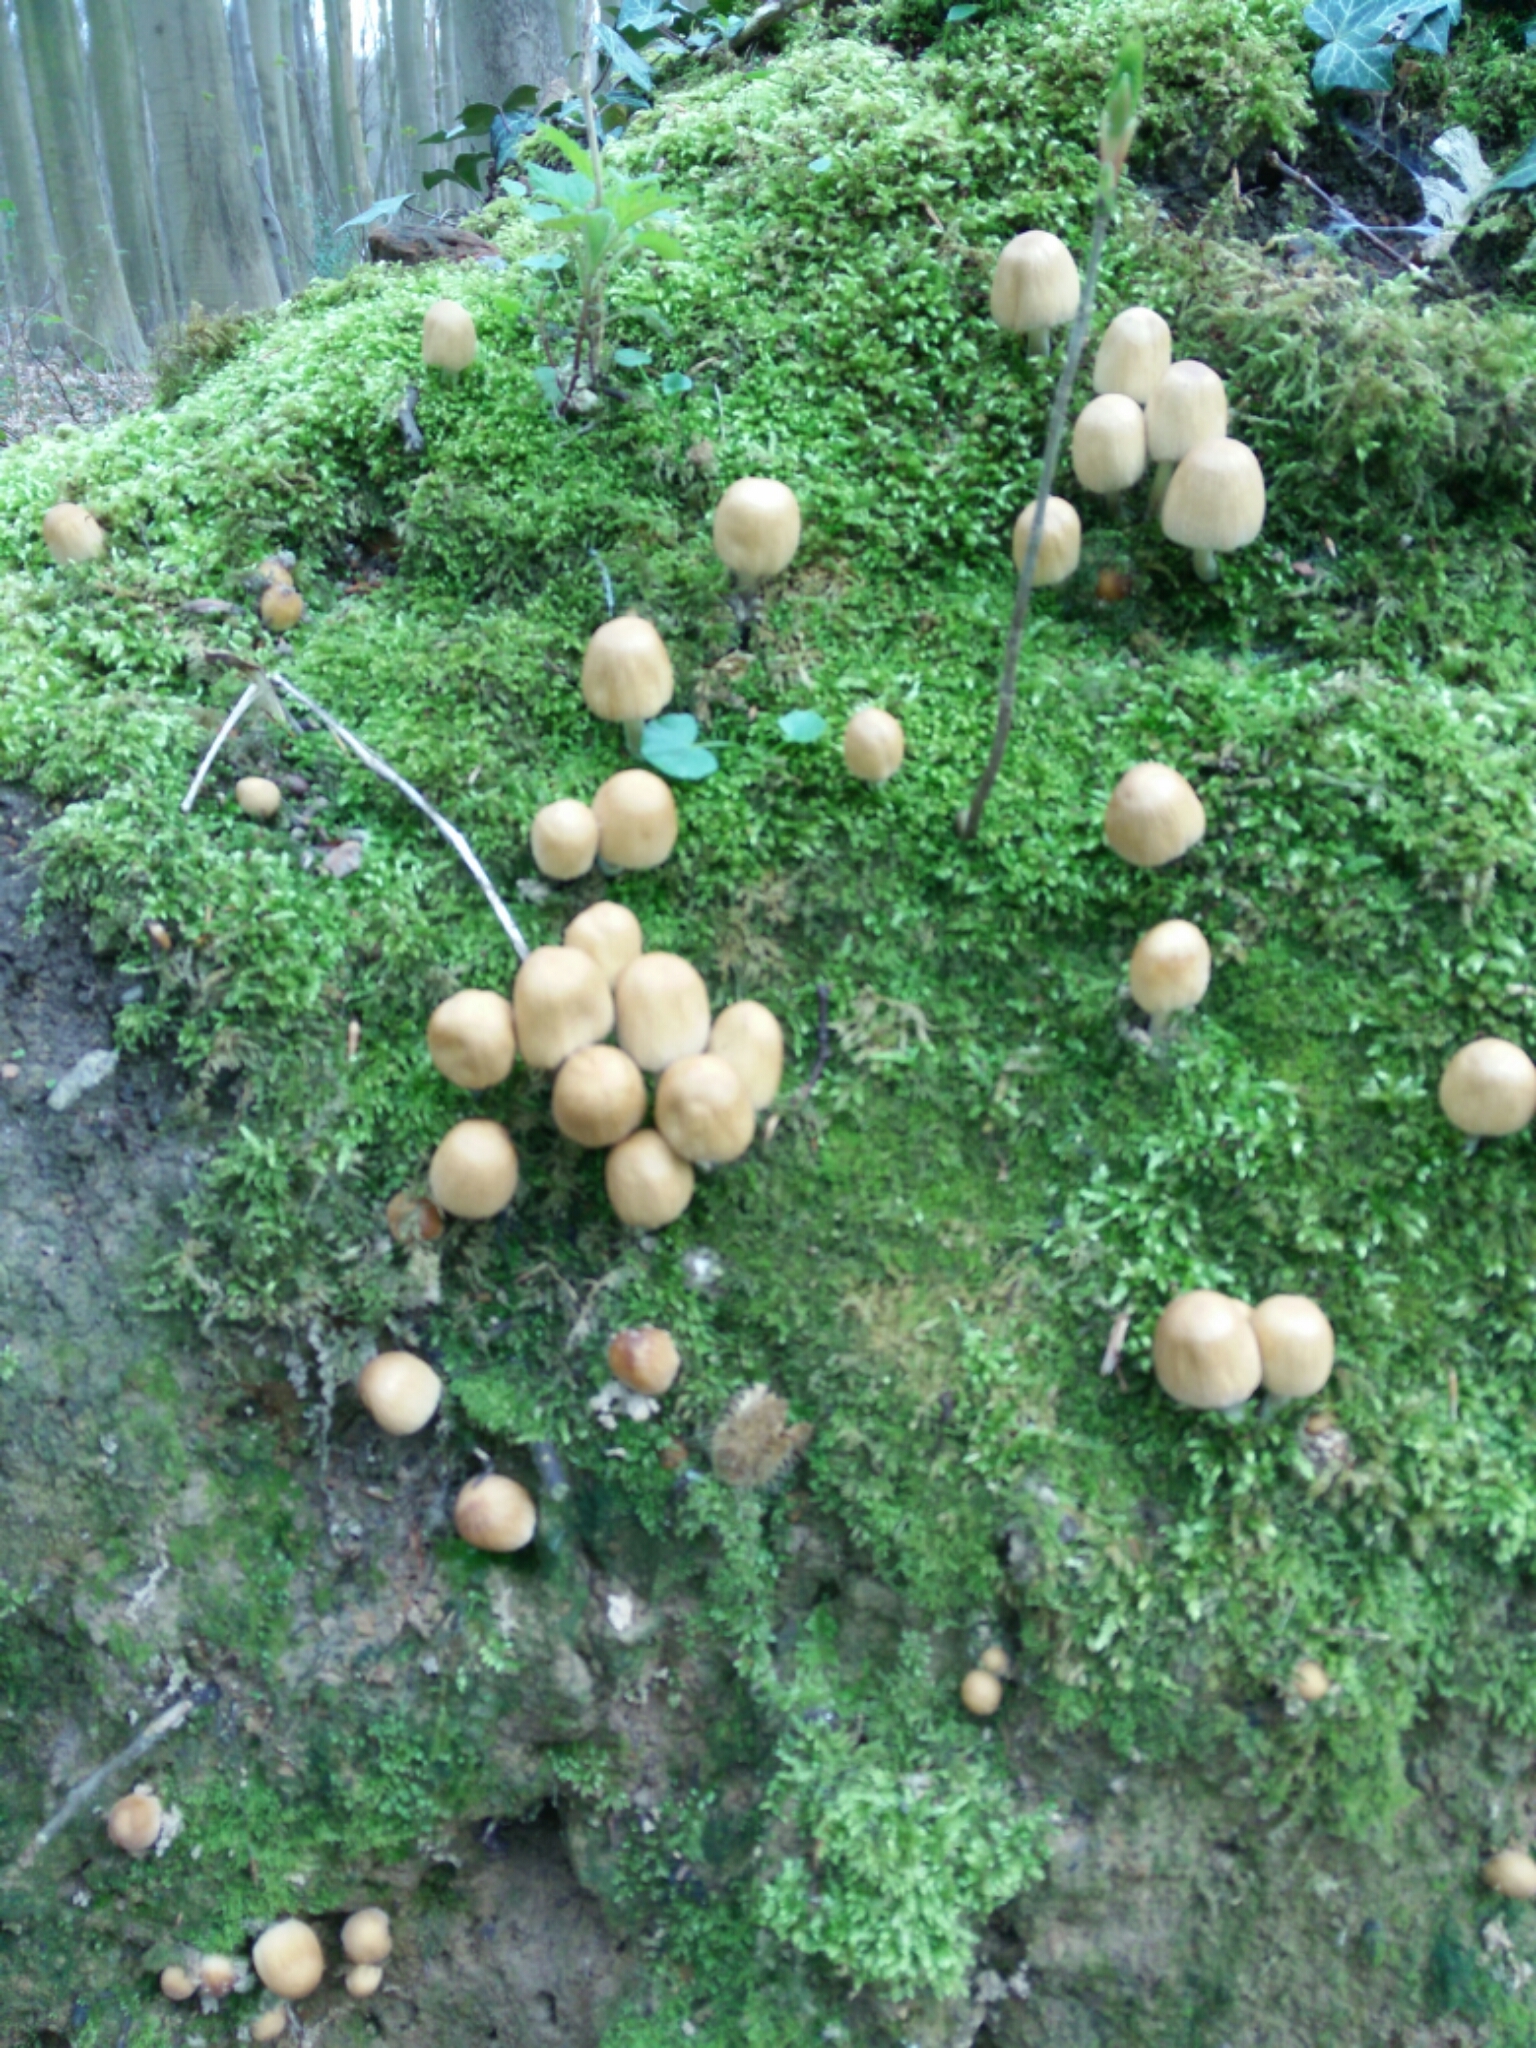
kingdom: Fungi
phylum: Basidiomycota
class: Agaricomycetes
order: Agaricales
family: Psathyrellaceae
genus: Coprinellus
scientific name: Coprinellus disseminatus
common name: Fairies' bonnets
